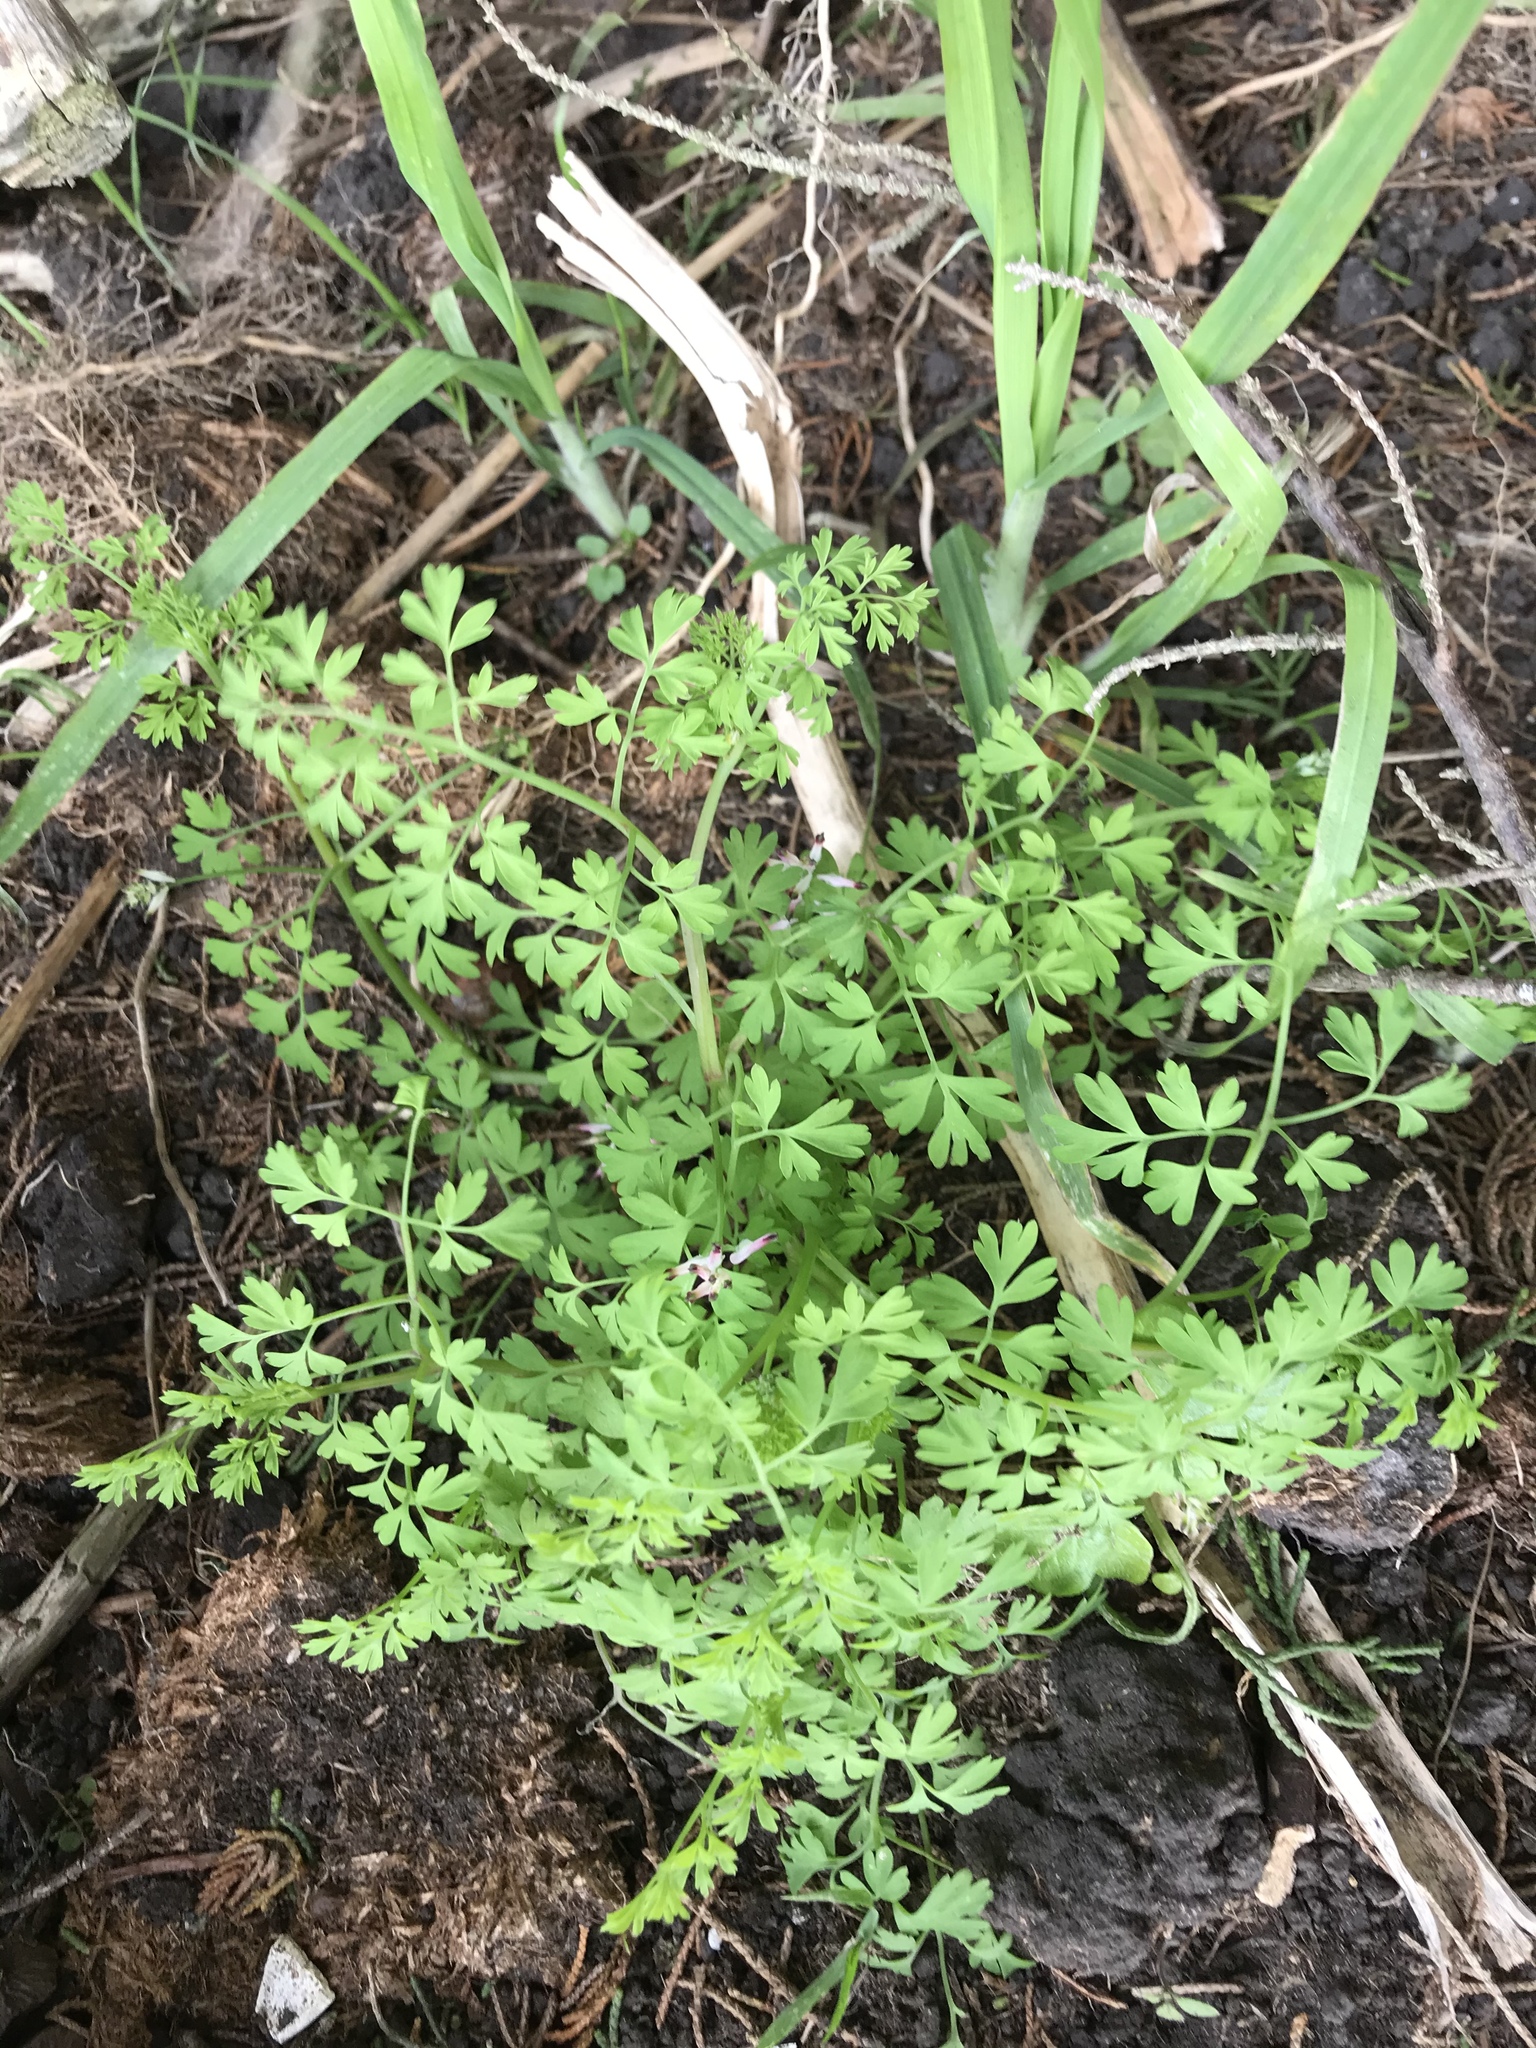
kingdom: Plantae
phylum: Tracheophyta
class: Magnoliopsida
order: Ranunculales
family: Papaveraceae
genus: Fumaria
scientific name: Fumaria muralis
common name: Common ramping-fumitory
